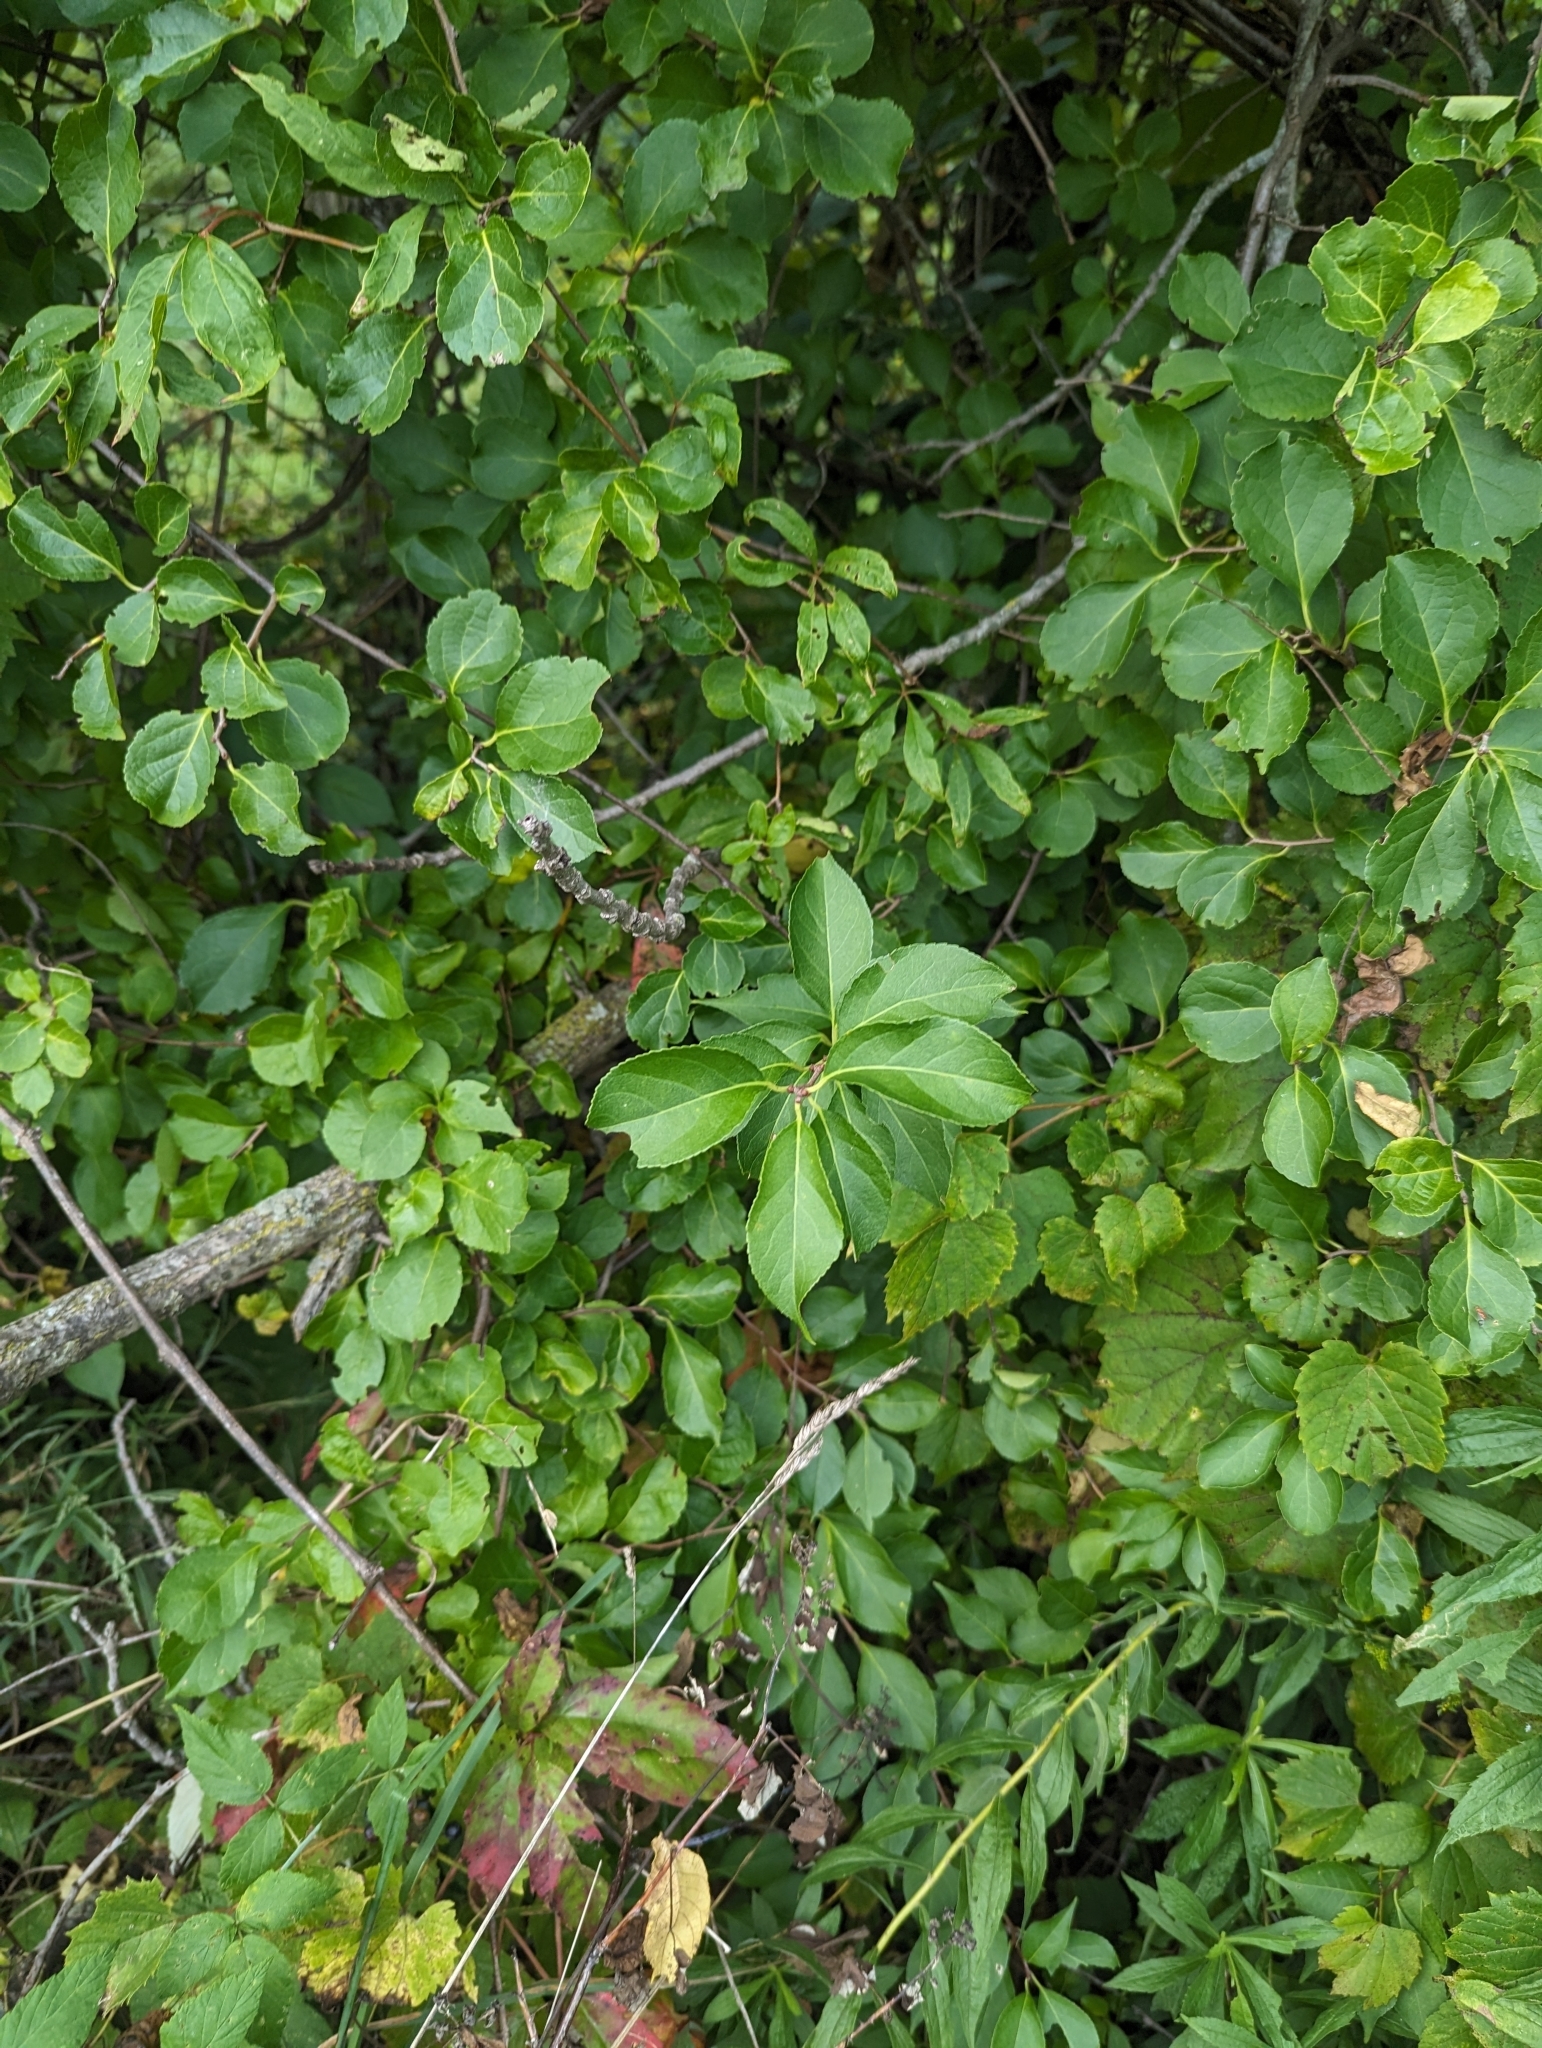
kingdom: Plantae
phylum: Tracheophyta
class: Magnoliopsida
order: Celastrales
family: Celastraceae
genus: Celastrus
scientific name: Celastrus orbiculatus
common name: Oriental bittersweet
